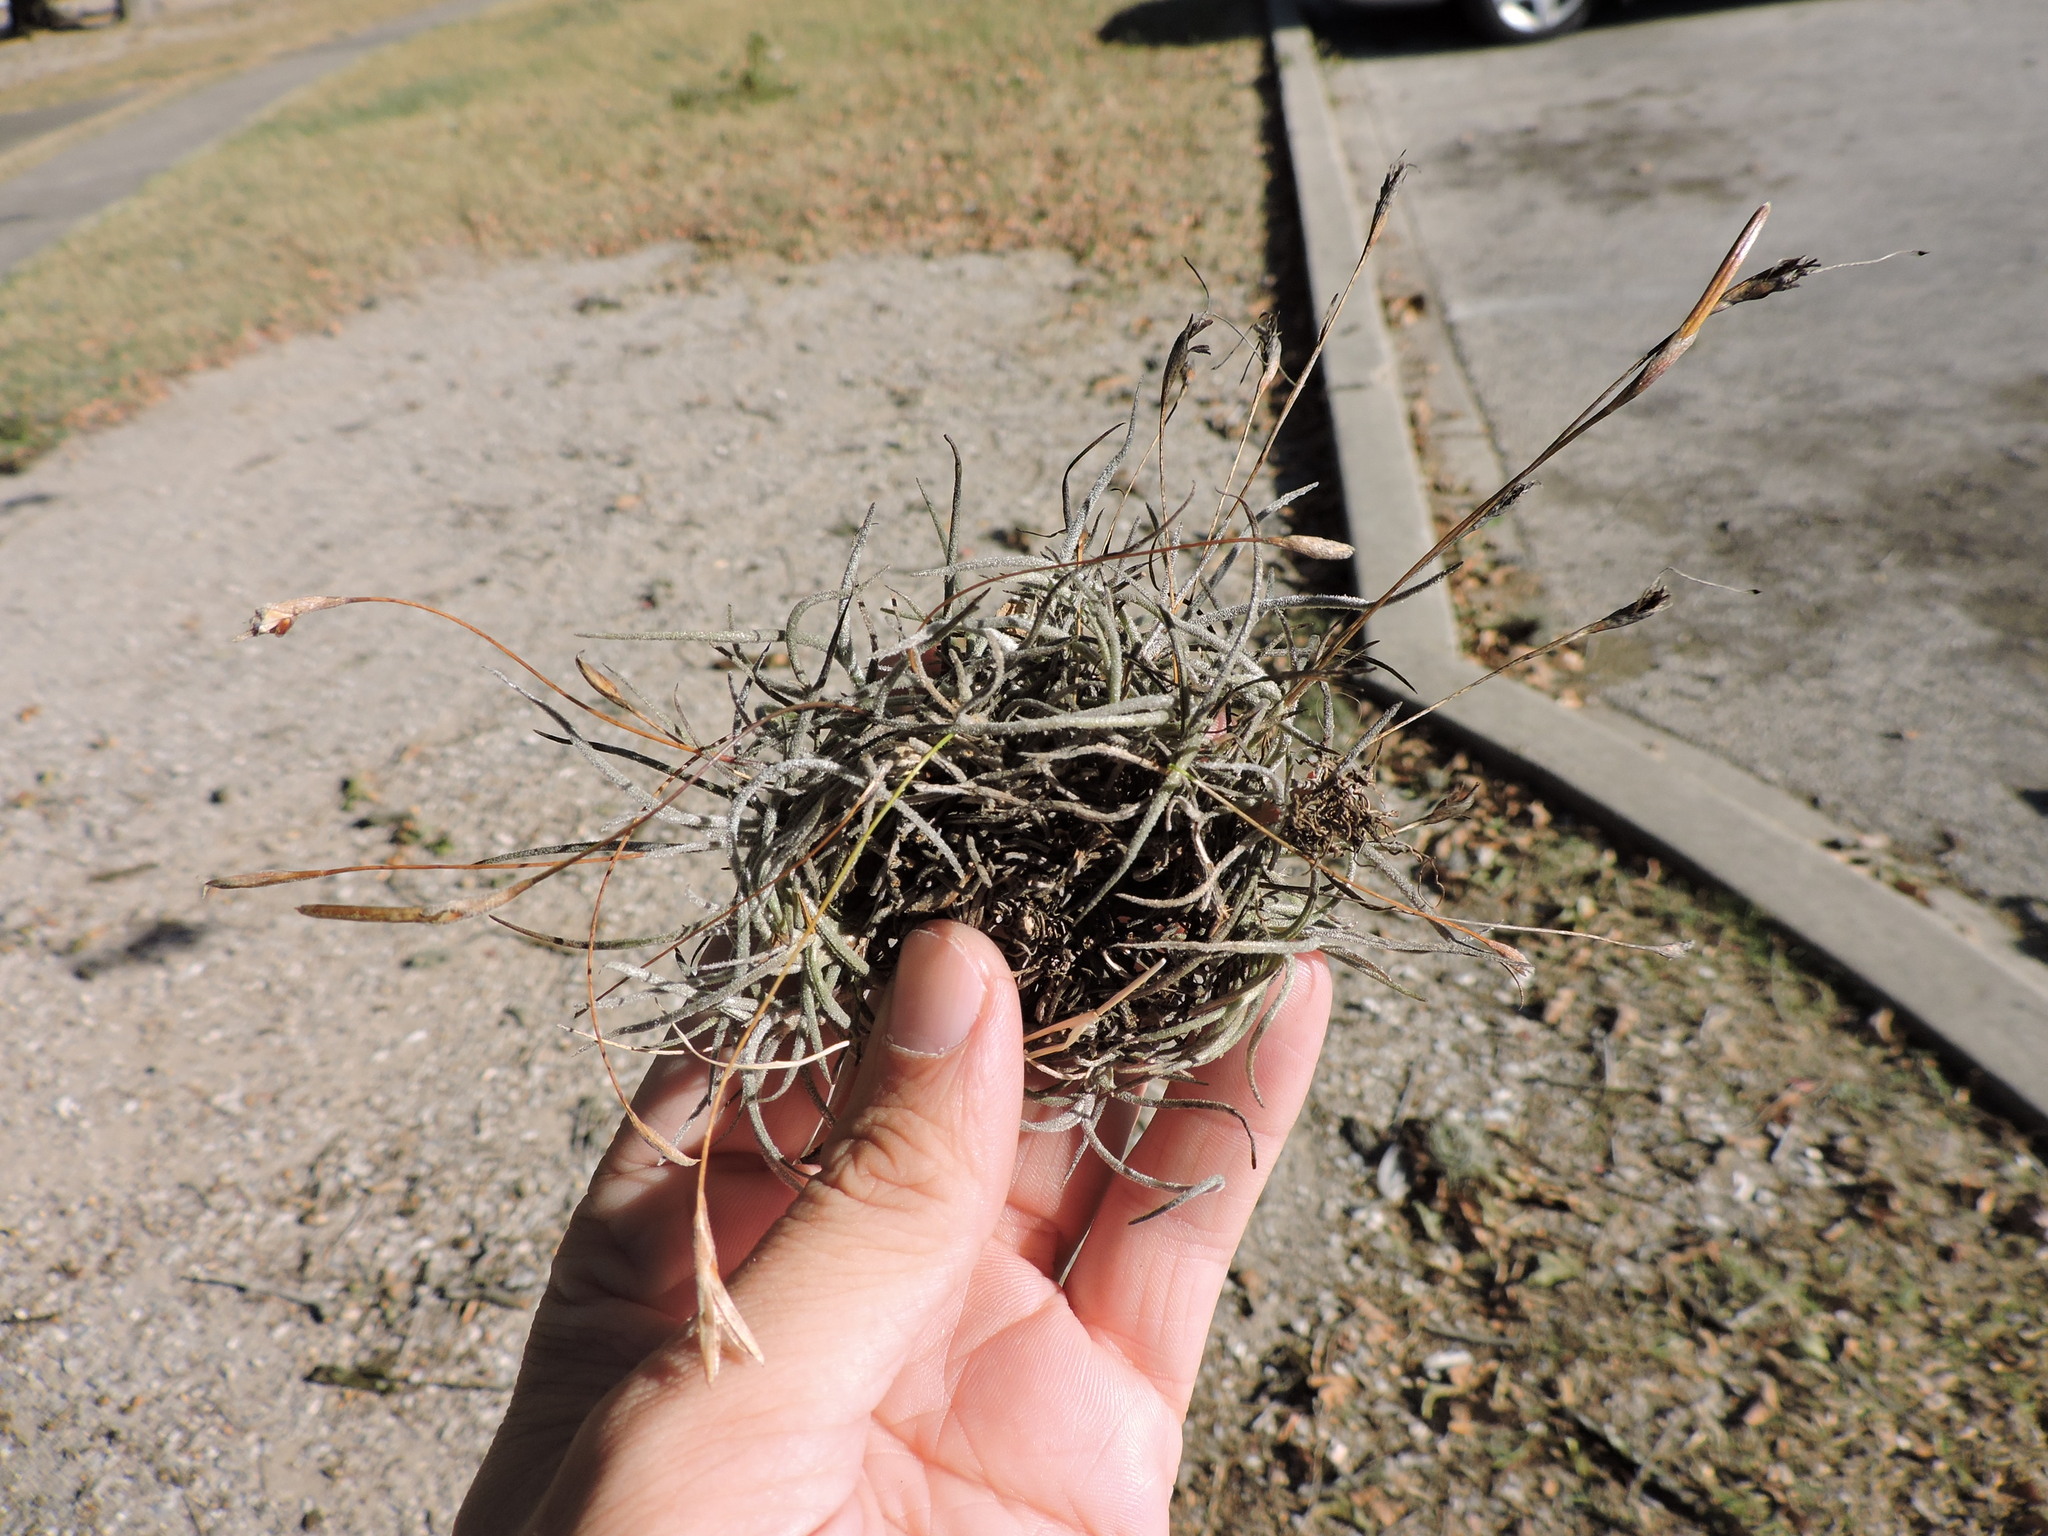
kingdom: Plantae
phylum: Tracheophyta
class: Liliopsida
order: Poales
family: Bromeliaceae
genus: Tillandsia
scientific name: Tillandsia recurvata
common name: Small ballmoss
